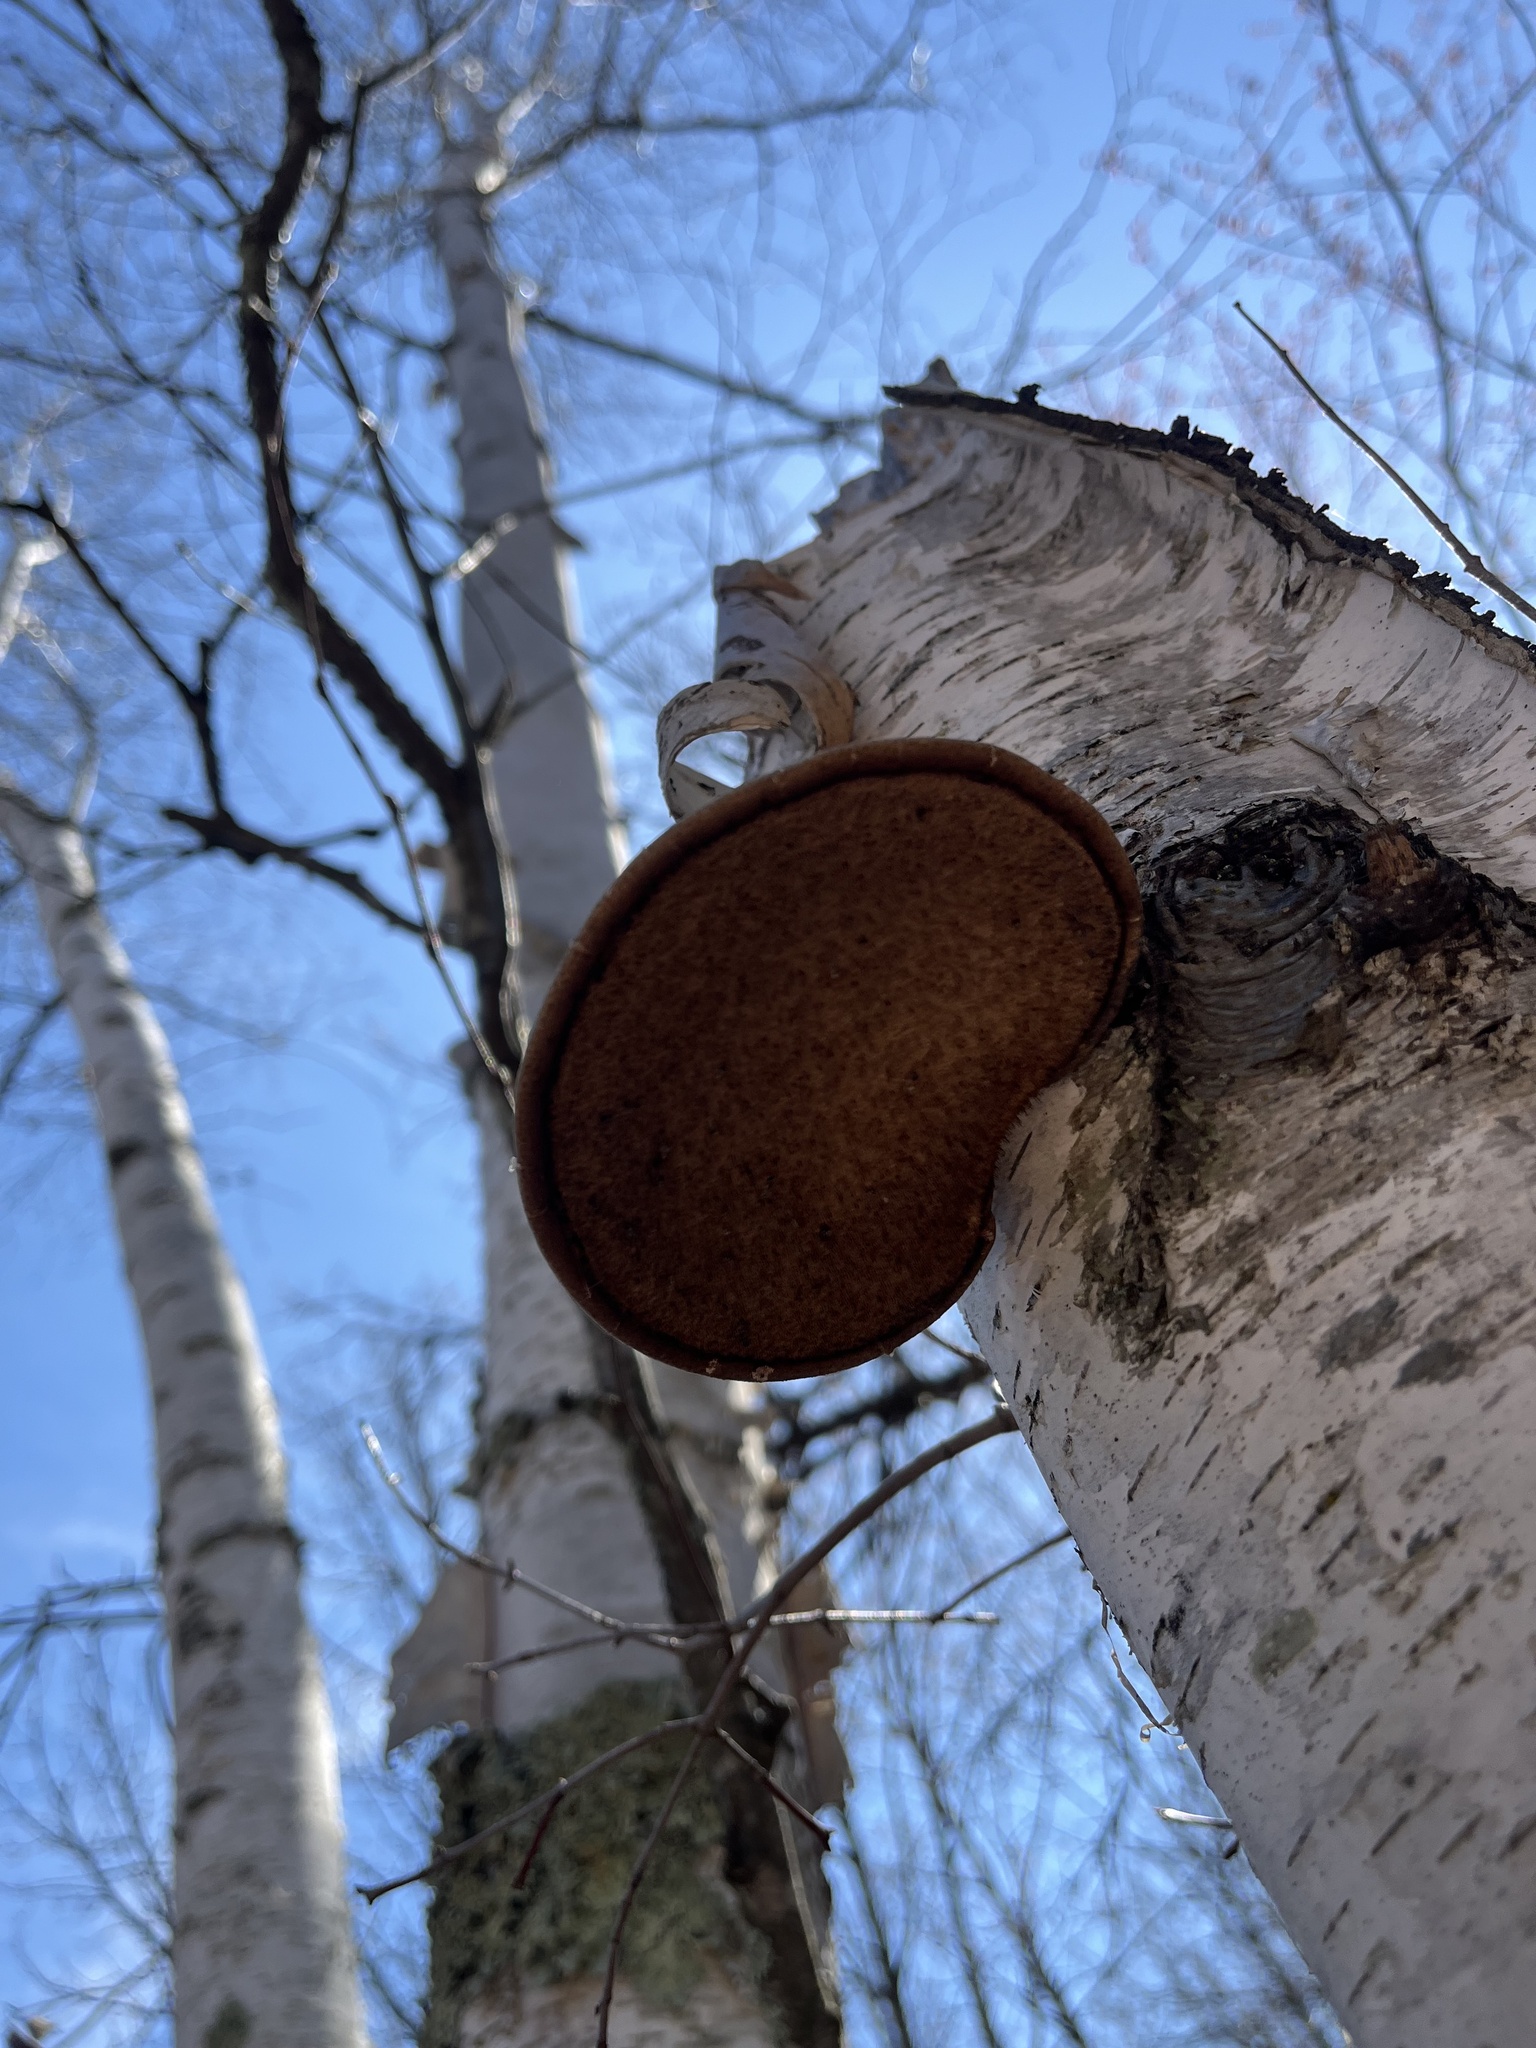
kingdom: Fungi
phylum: Basidiomycota
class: Agaricomycetes
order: Polyporales
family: Fomitopsidaceae
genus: Fomitopsis
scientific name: Fomitopsis betulina
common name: Birch polypore
